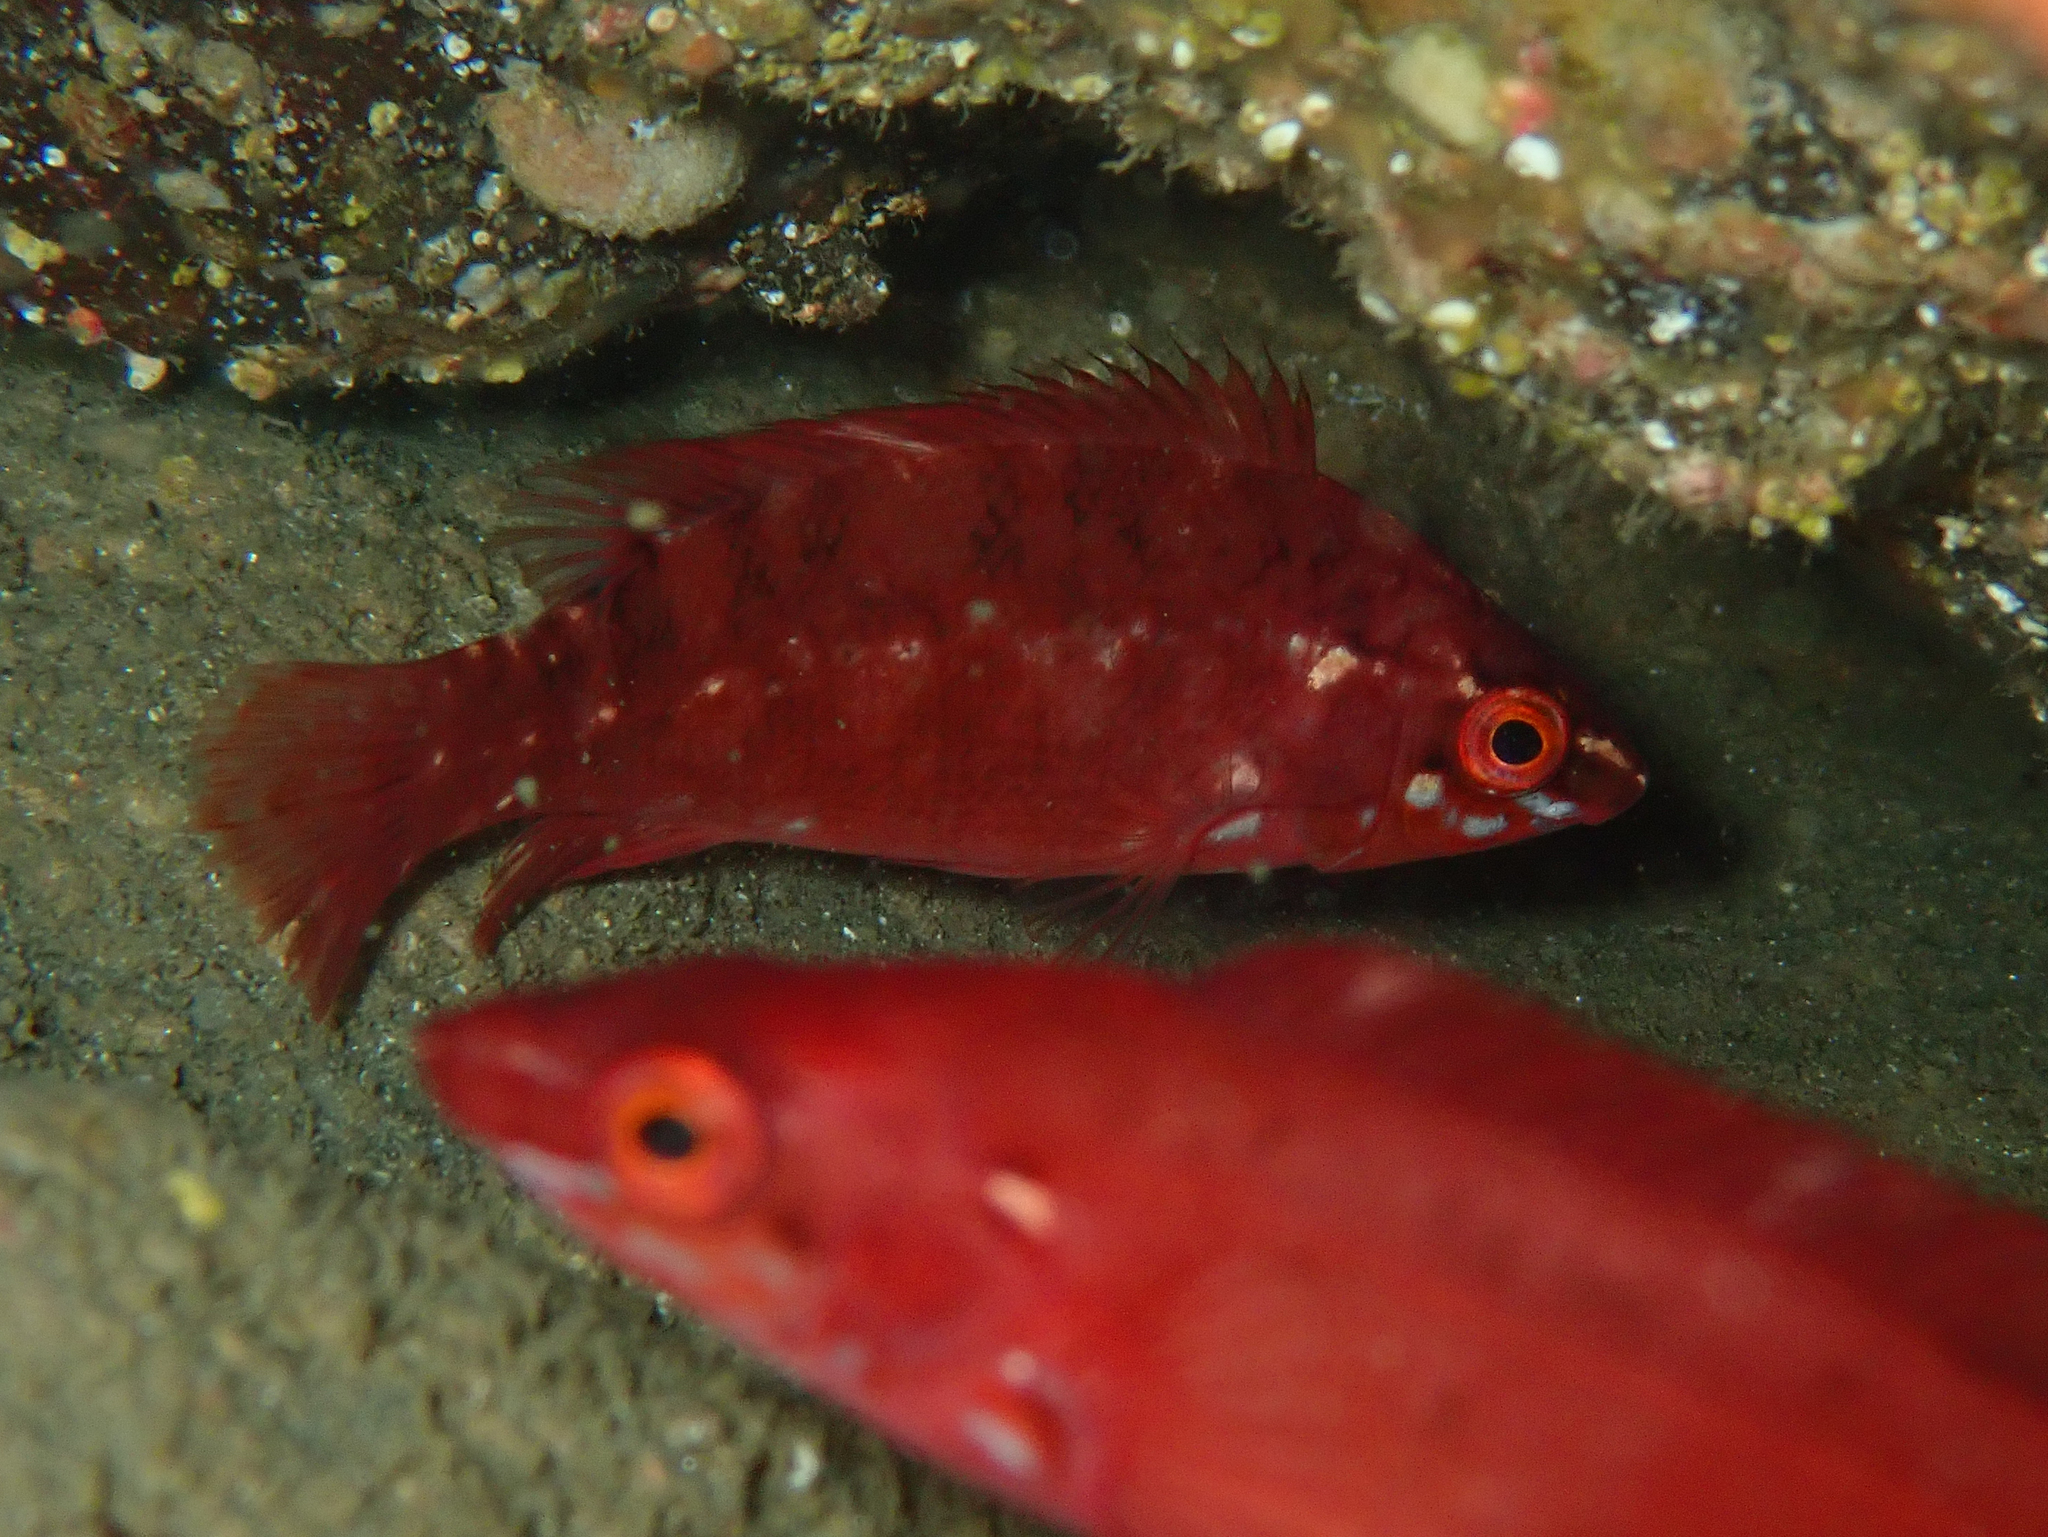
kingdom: Animalia
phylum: Chordata
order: Perciformes
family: Labridae
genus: Labrus
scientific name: Labrus bergylta
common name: Ballan wrasse
